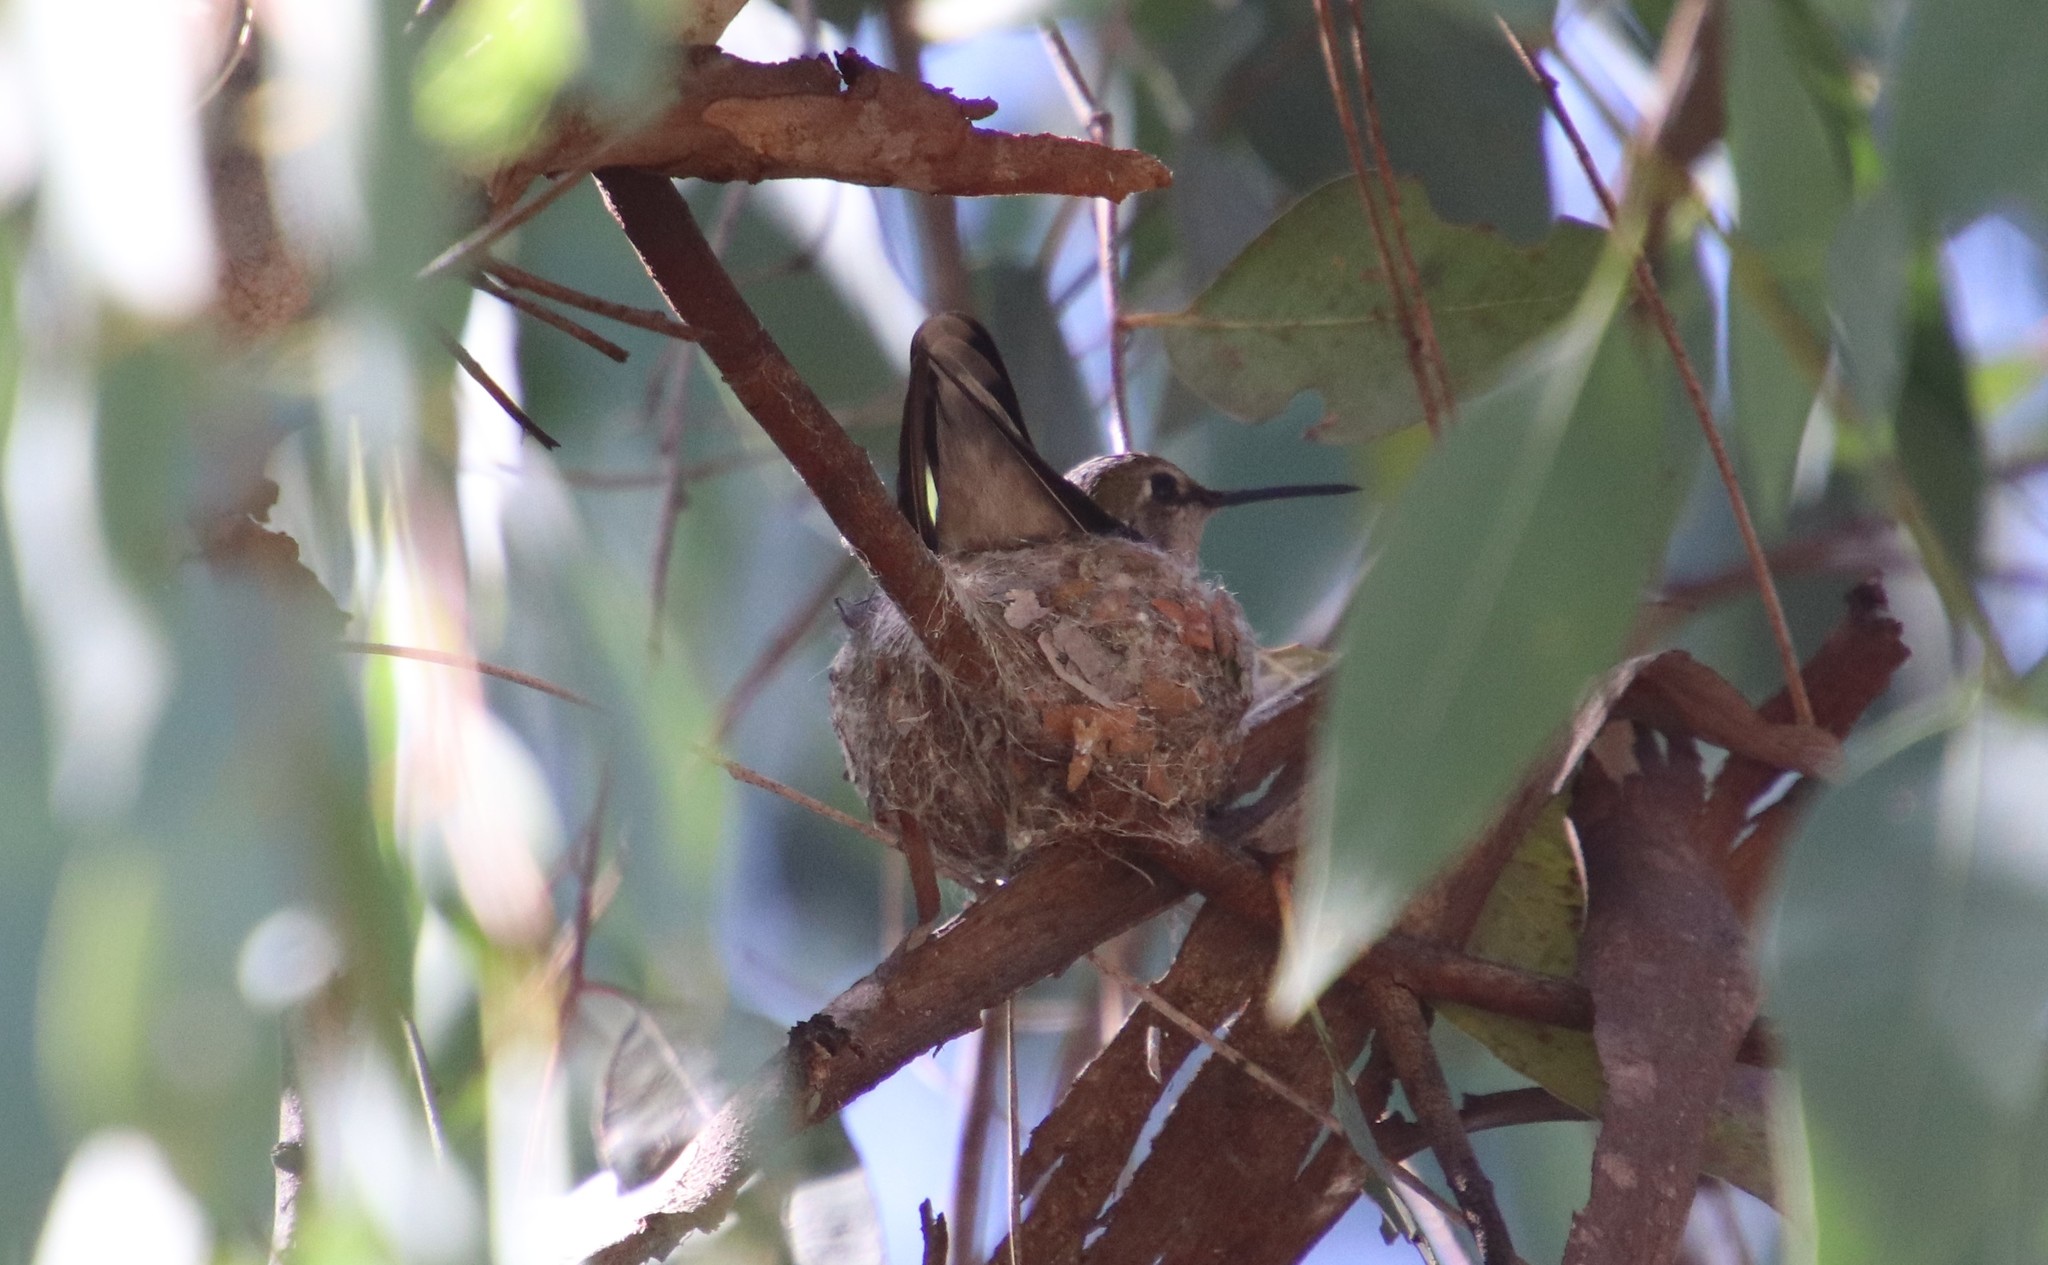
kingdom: Animalia
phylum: Chordata
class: Aves
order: Apodiformes
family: Trochilidae
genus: Calypte
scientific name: Calypte anna
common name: Anna's hummingbird
